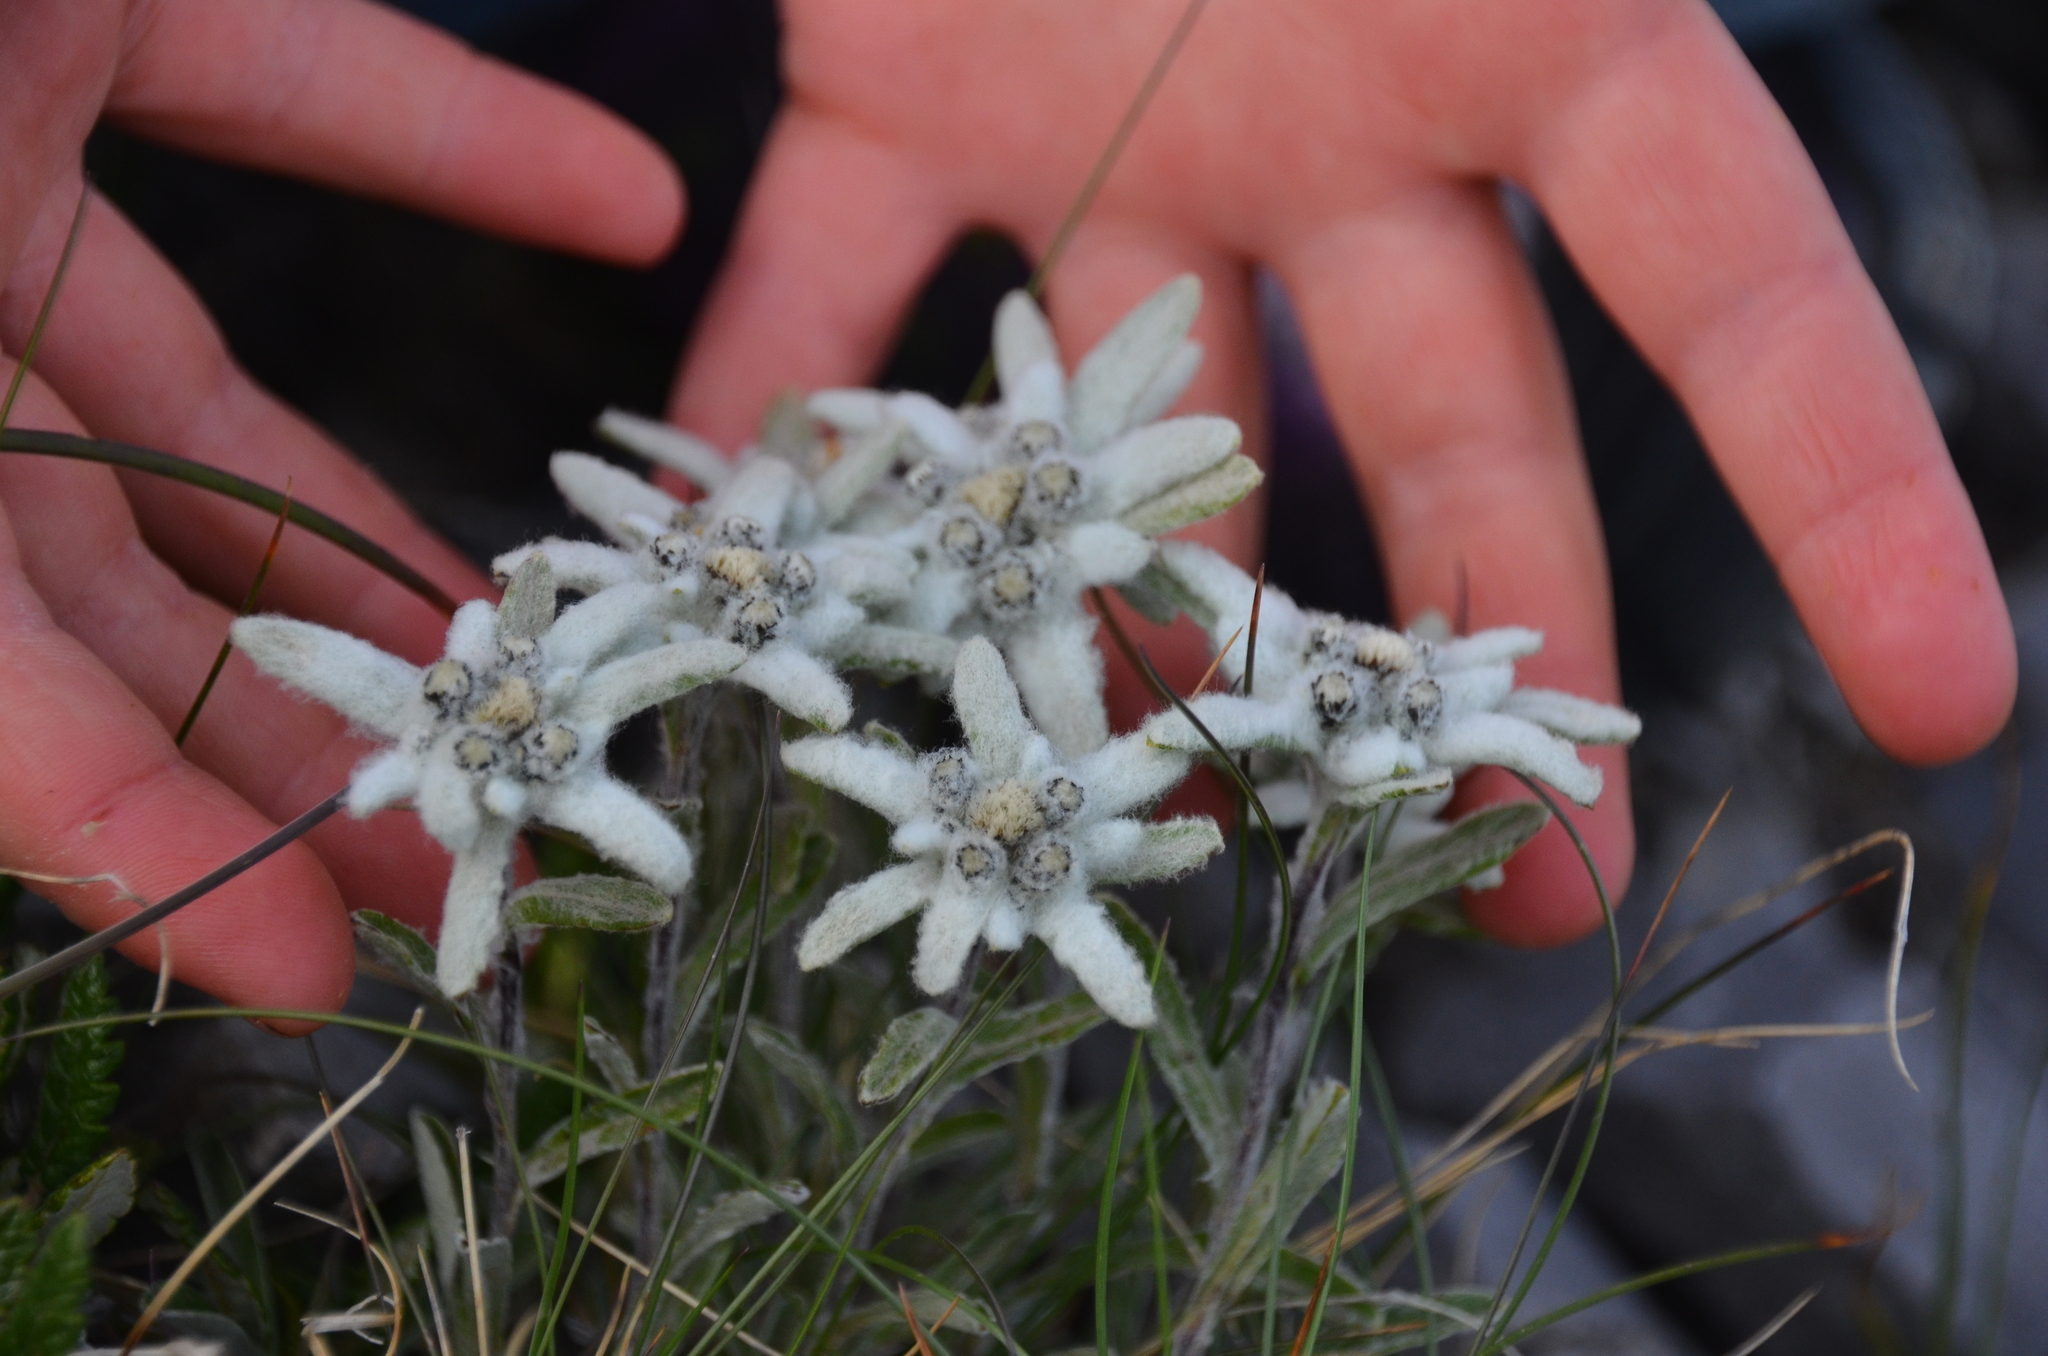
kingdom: Plantae
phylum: Tracheophyta
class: Magnoliopsida
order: Asterales
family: Asteraceae
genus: Leontopodium
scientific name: Leontopodium nivale
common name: Edelweiss
